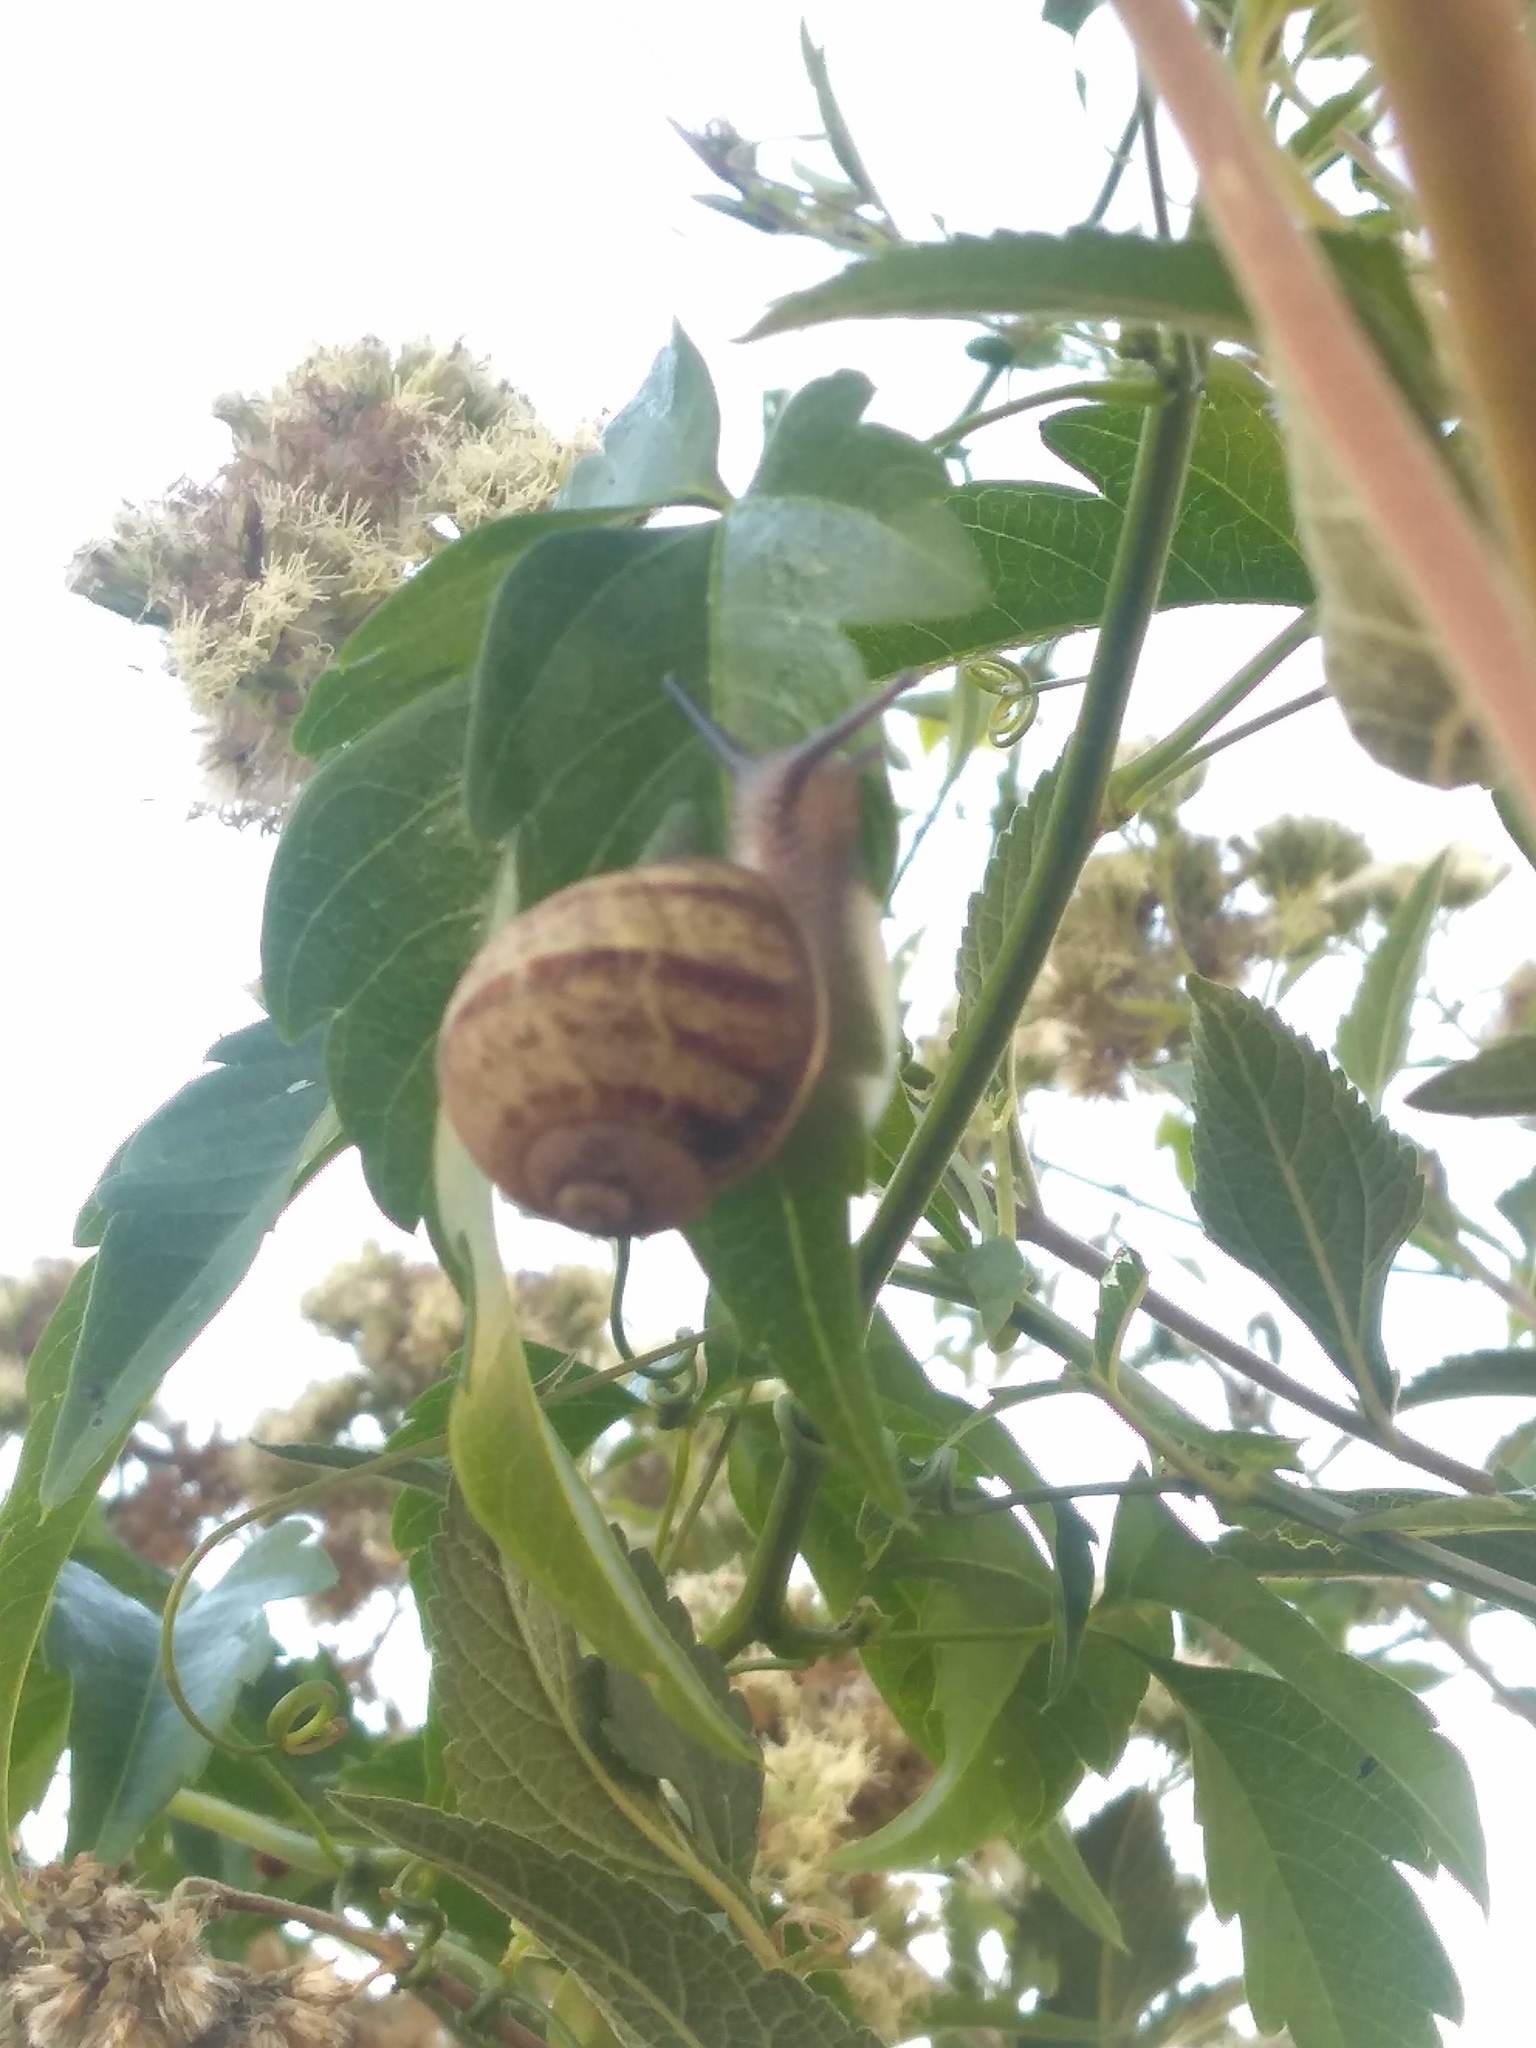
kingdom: Animalia
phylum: Mollusca
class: Gastropoda
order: Stylommatophora
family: Helicidae
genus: Cornu
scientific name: Cornu aspersum
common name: Brown garden snail
